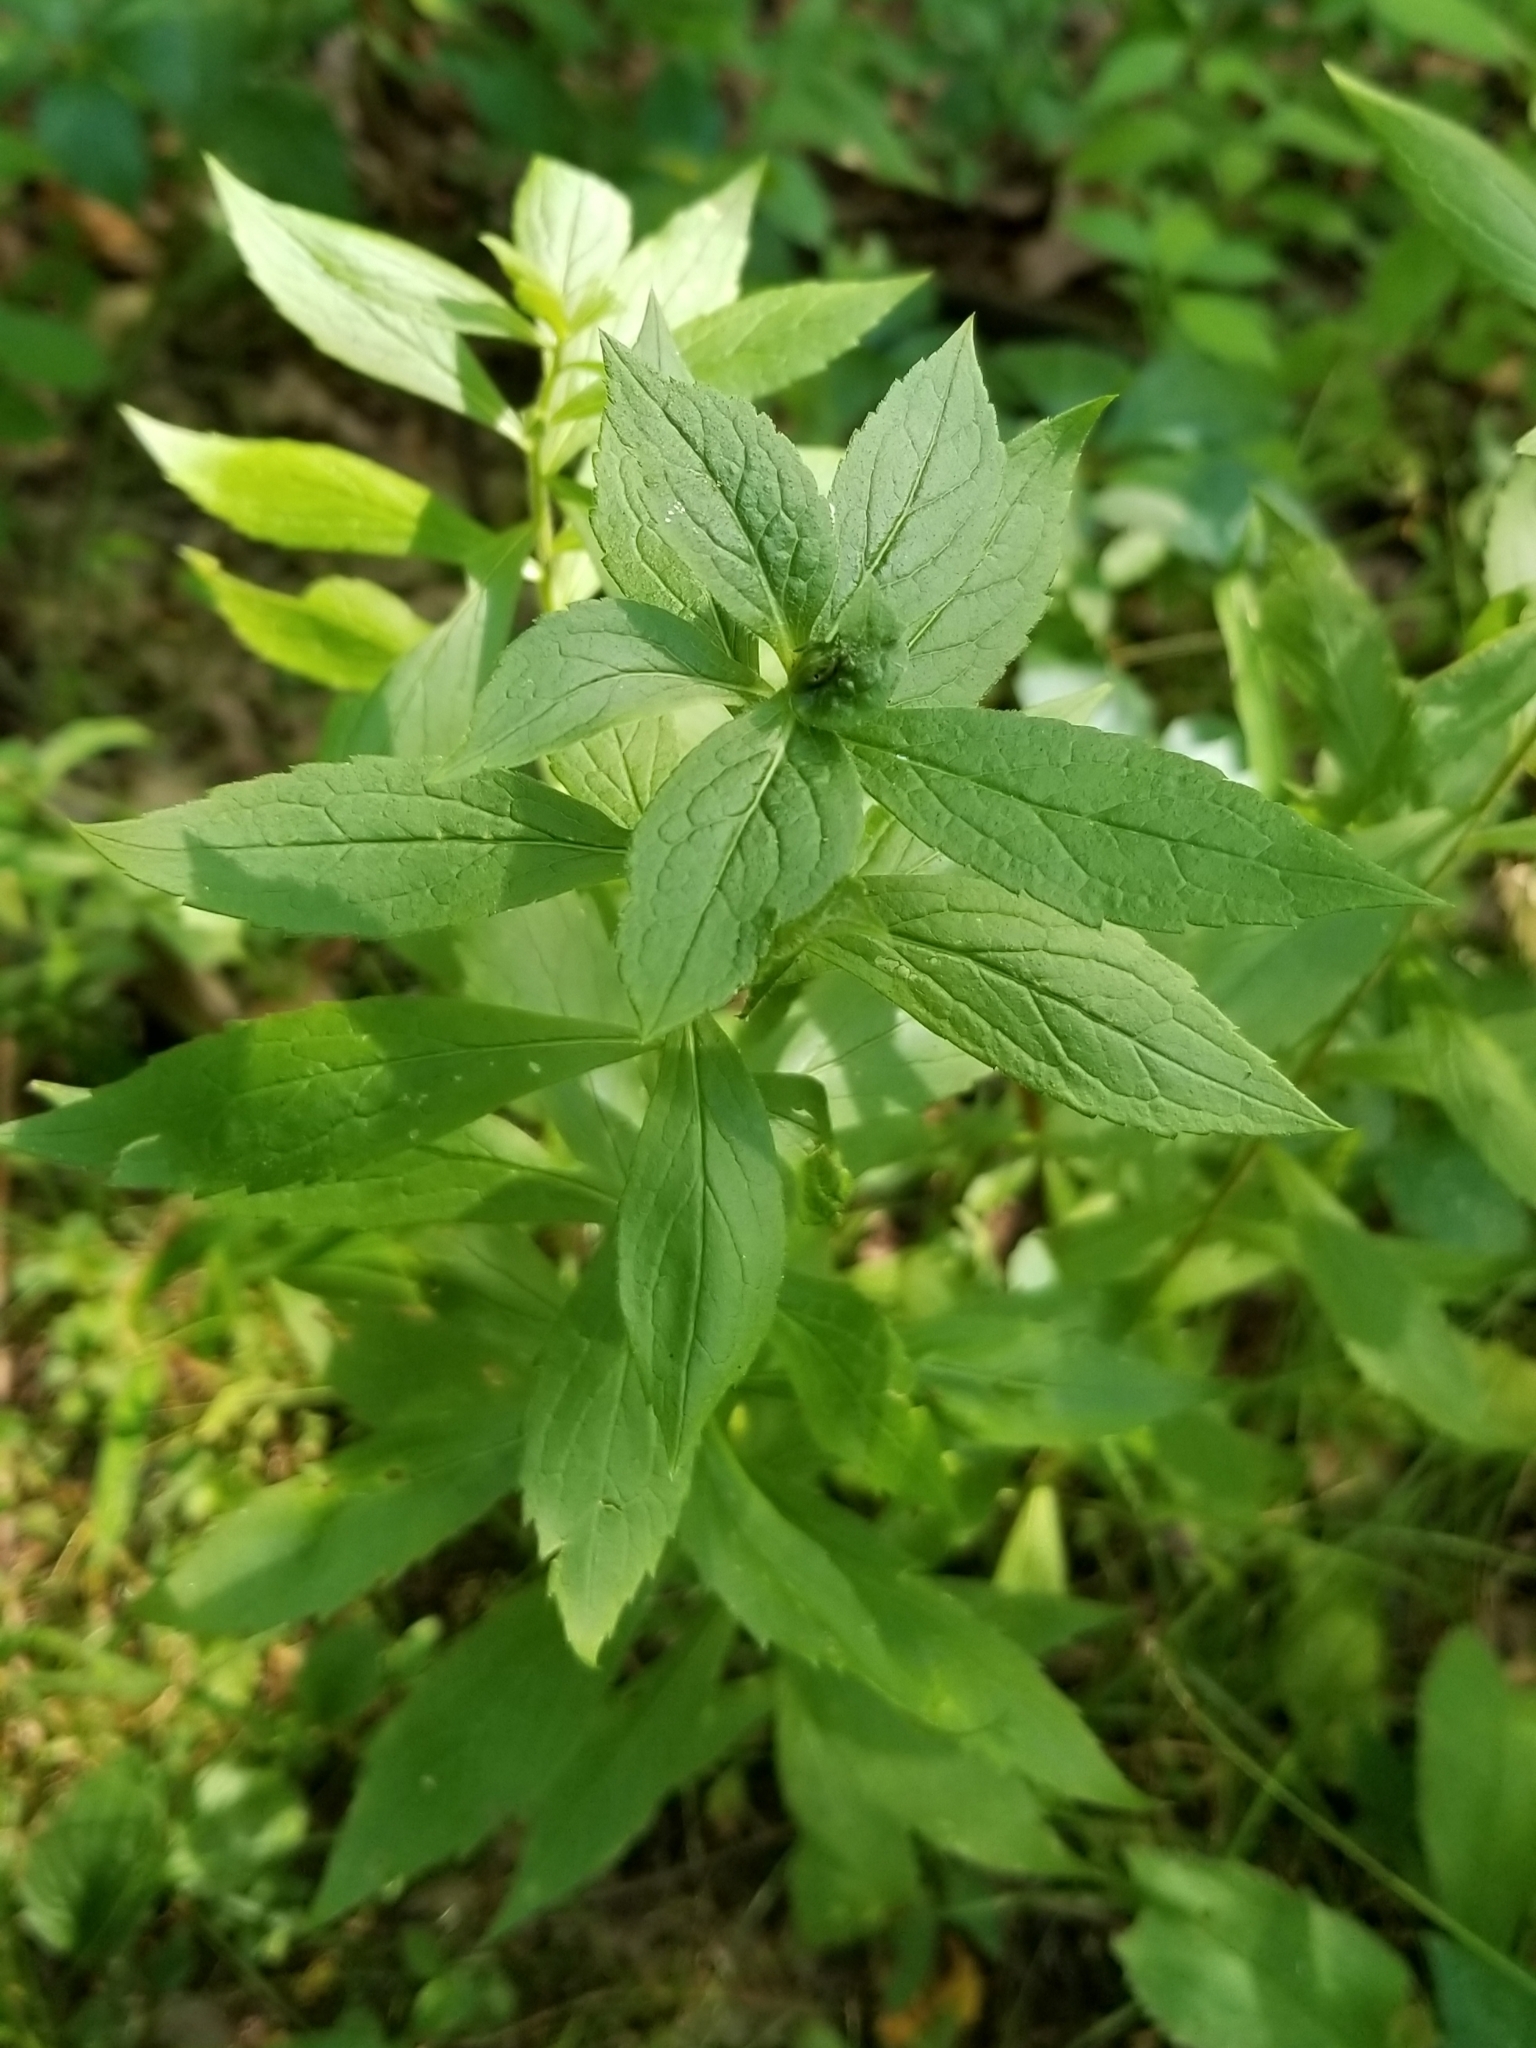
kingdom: Plantae
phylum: Tracheophyta
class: Magnoliopsida
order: Asterales
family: Asteraceae
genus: Solidago
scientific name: Solidago rugosa
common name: Rough-stemmed goldenrod
